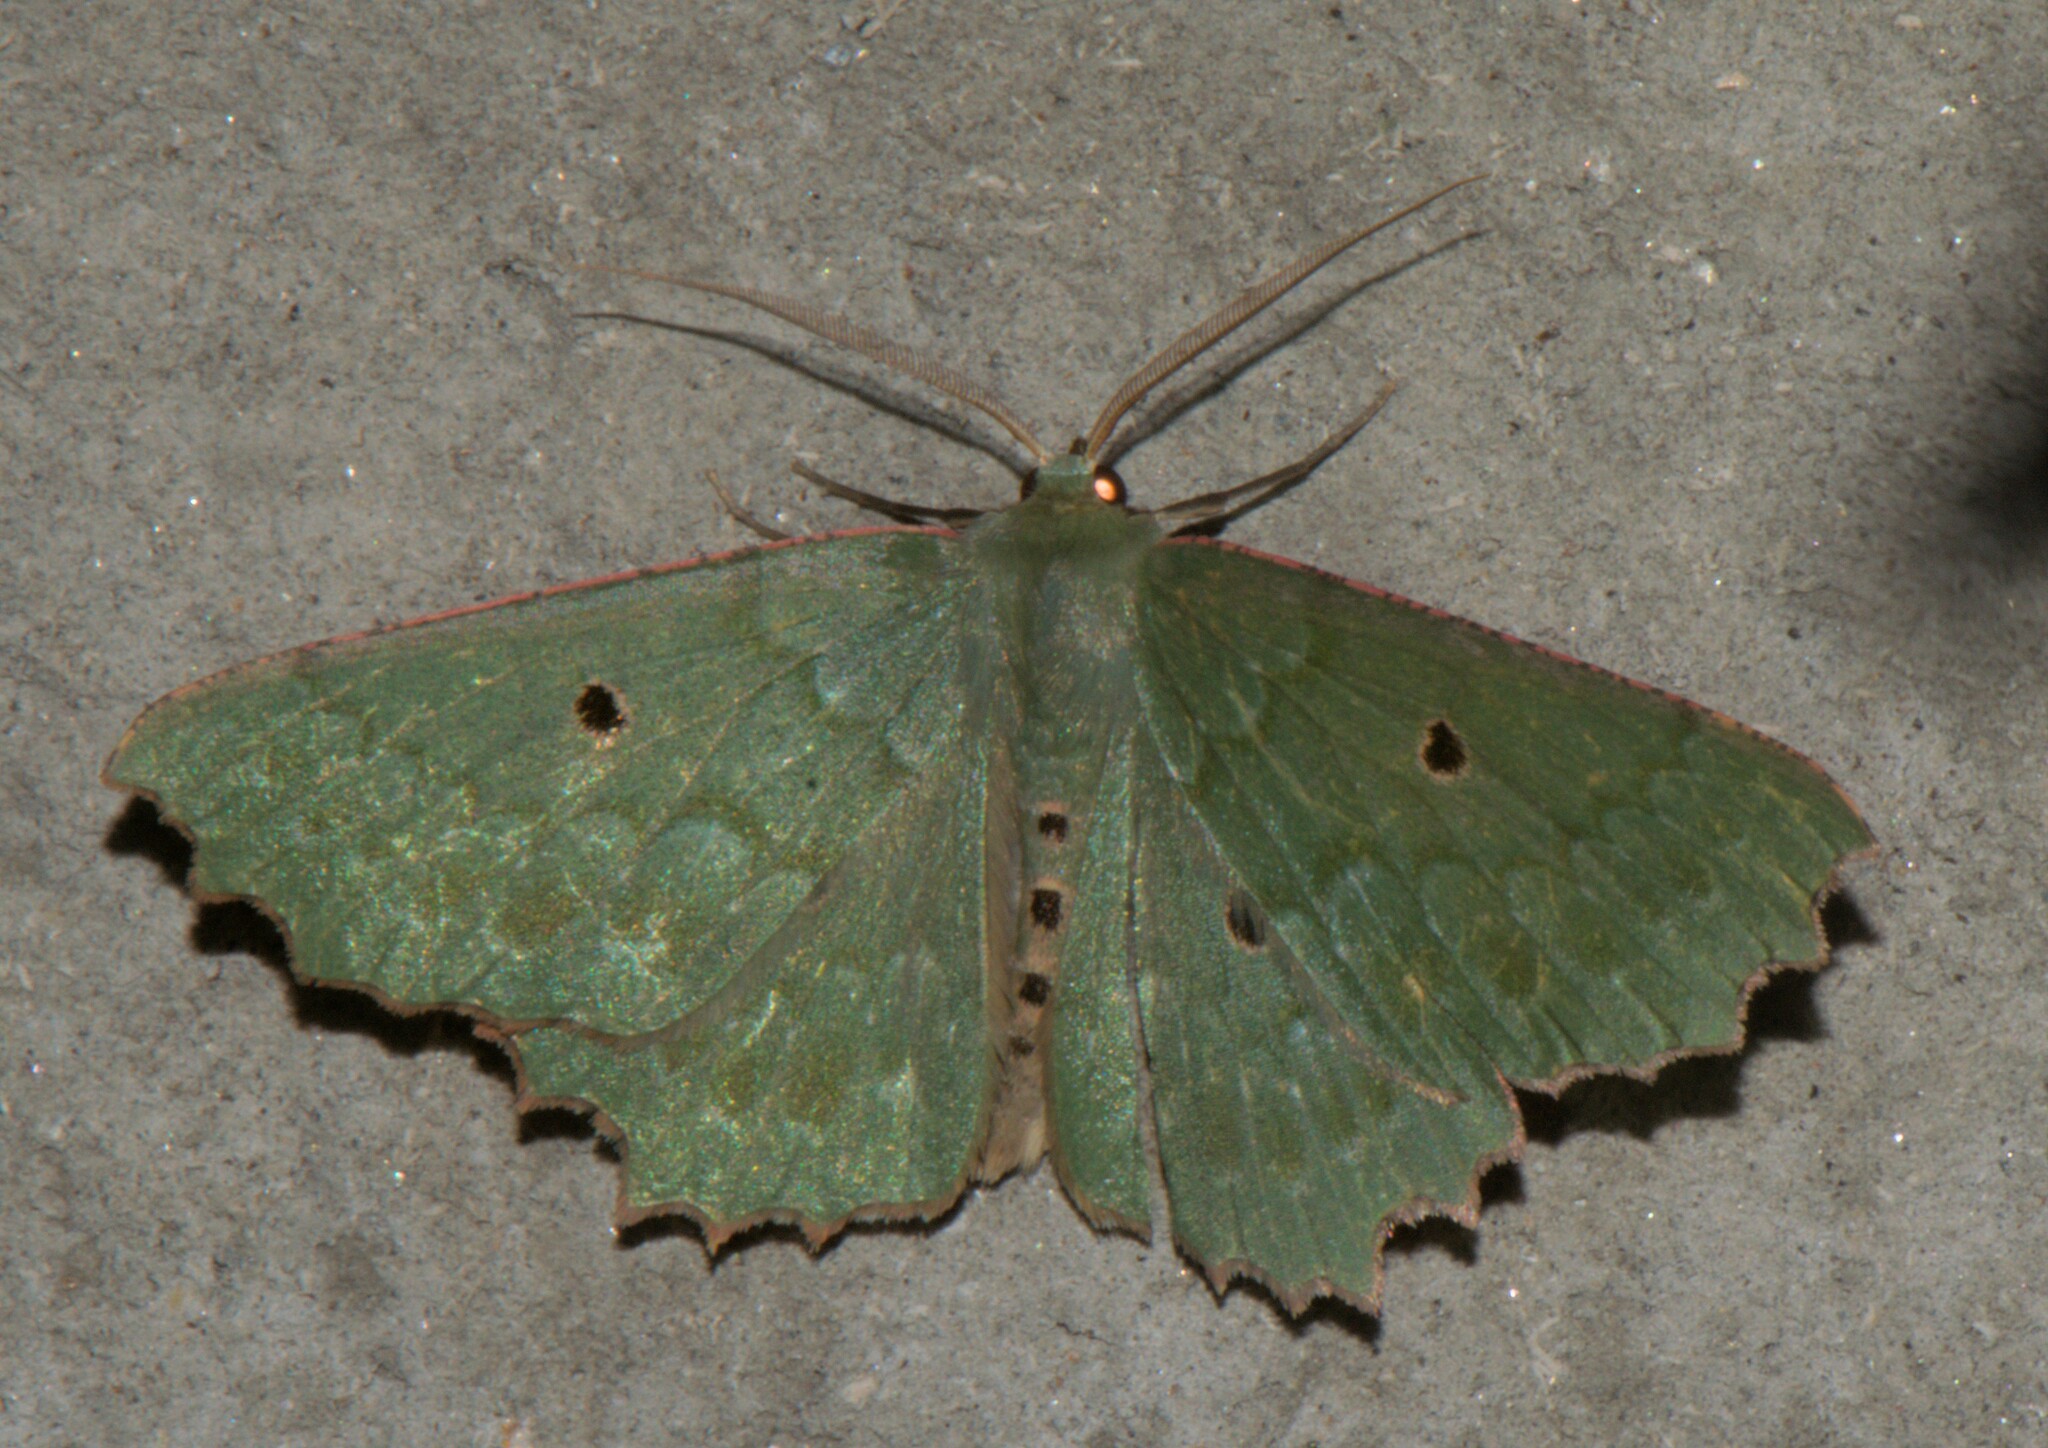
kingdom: Animalia
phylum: Arthropoda
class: Insecta
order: Lepidoptera
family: Geometridae
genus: Chlorodontopera
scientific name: Chlorodontopera discospilata
